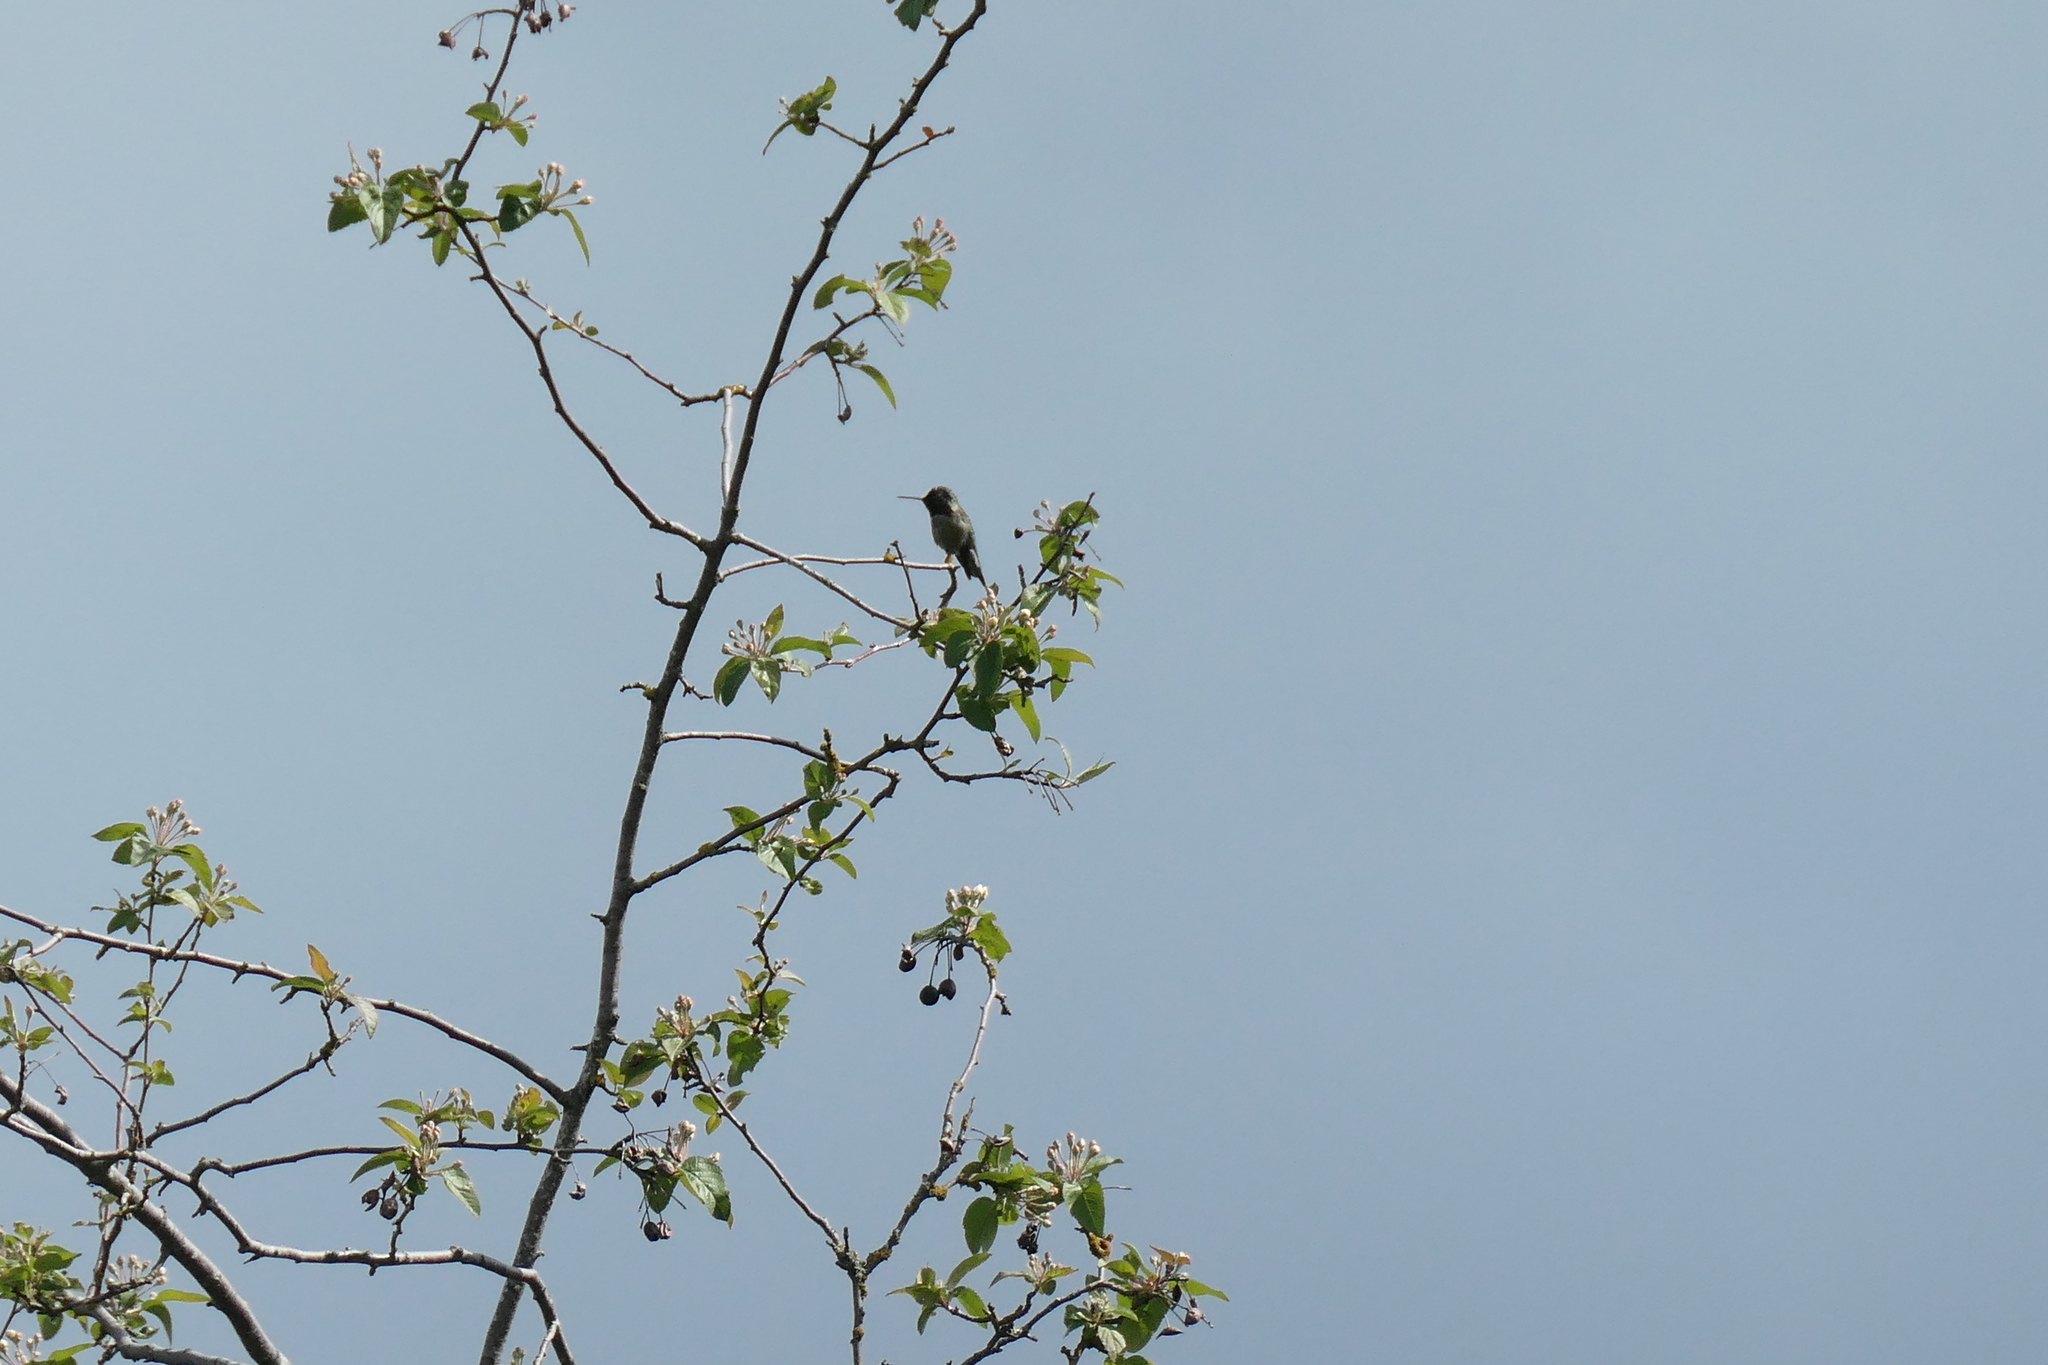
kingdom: Animalia
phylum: Chordata
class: Aves
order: Apodiformes
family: Trochilidae
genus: Calypte
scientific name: Calypte anna
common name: Anna's hummingbird
